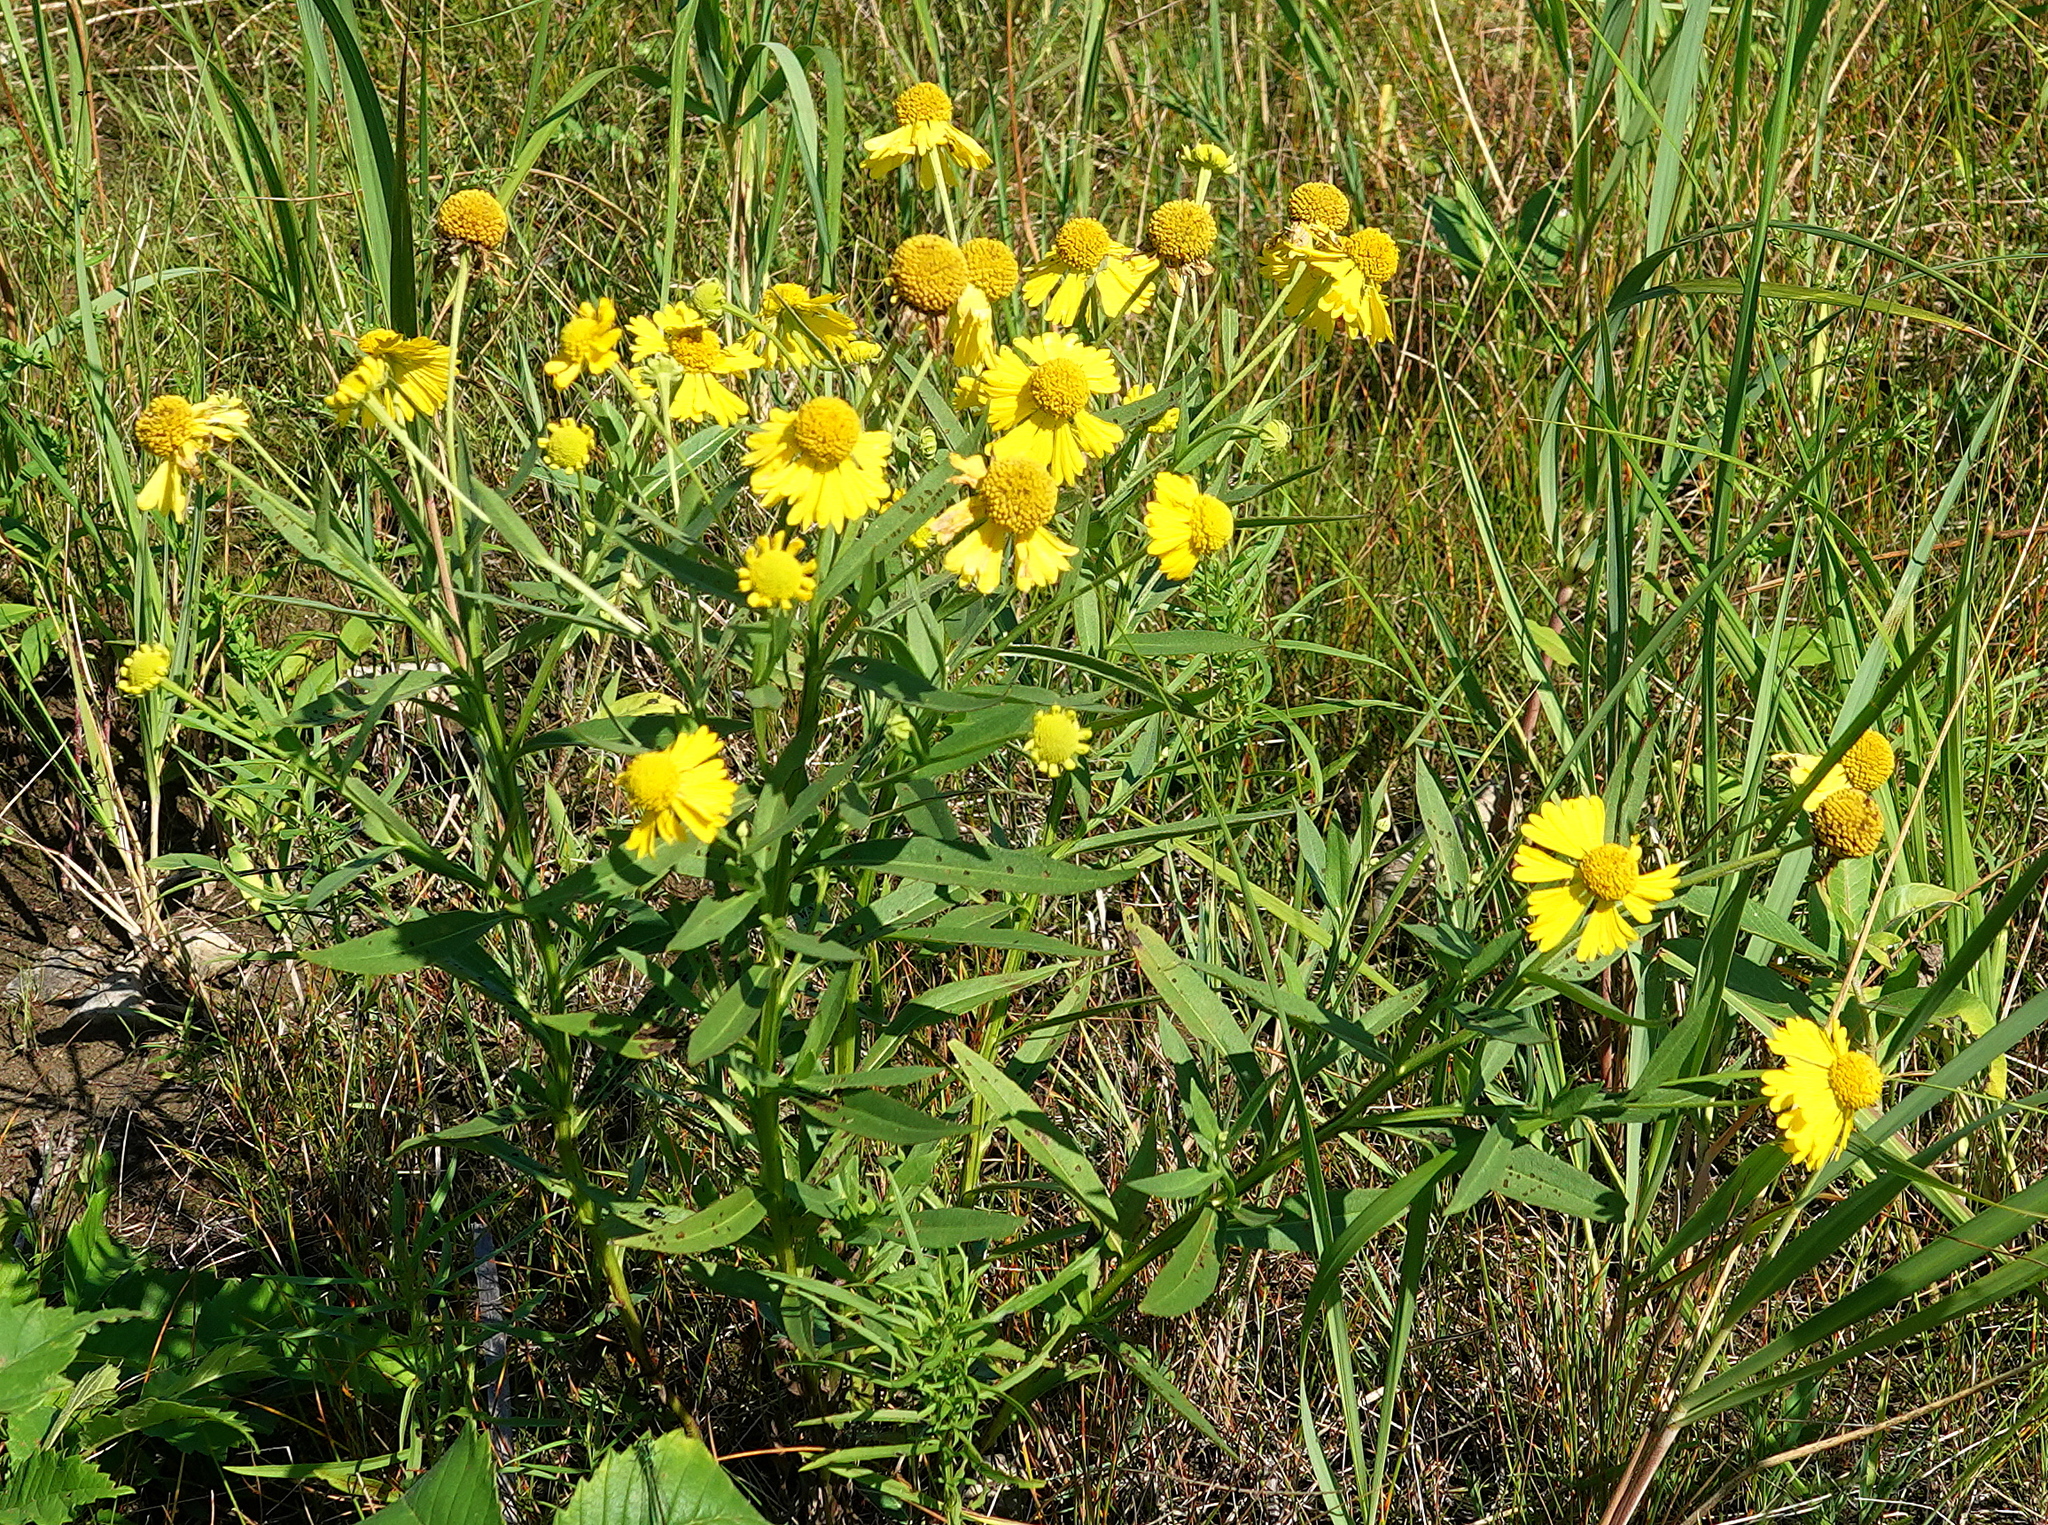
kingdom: Plantae
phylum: Tracheophyta
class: Magnoliopsida
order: Asterales
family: Asteraceae
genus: Helenium
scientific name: Helenium autumnale
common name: Sneezeweed
